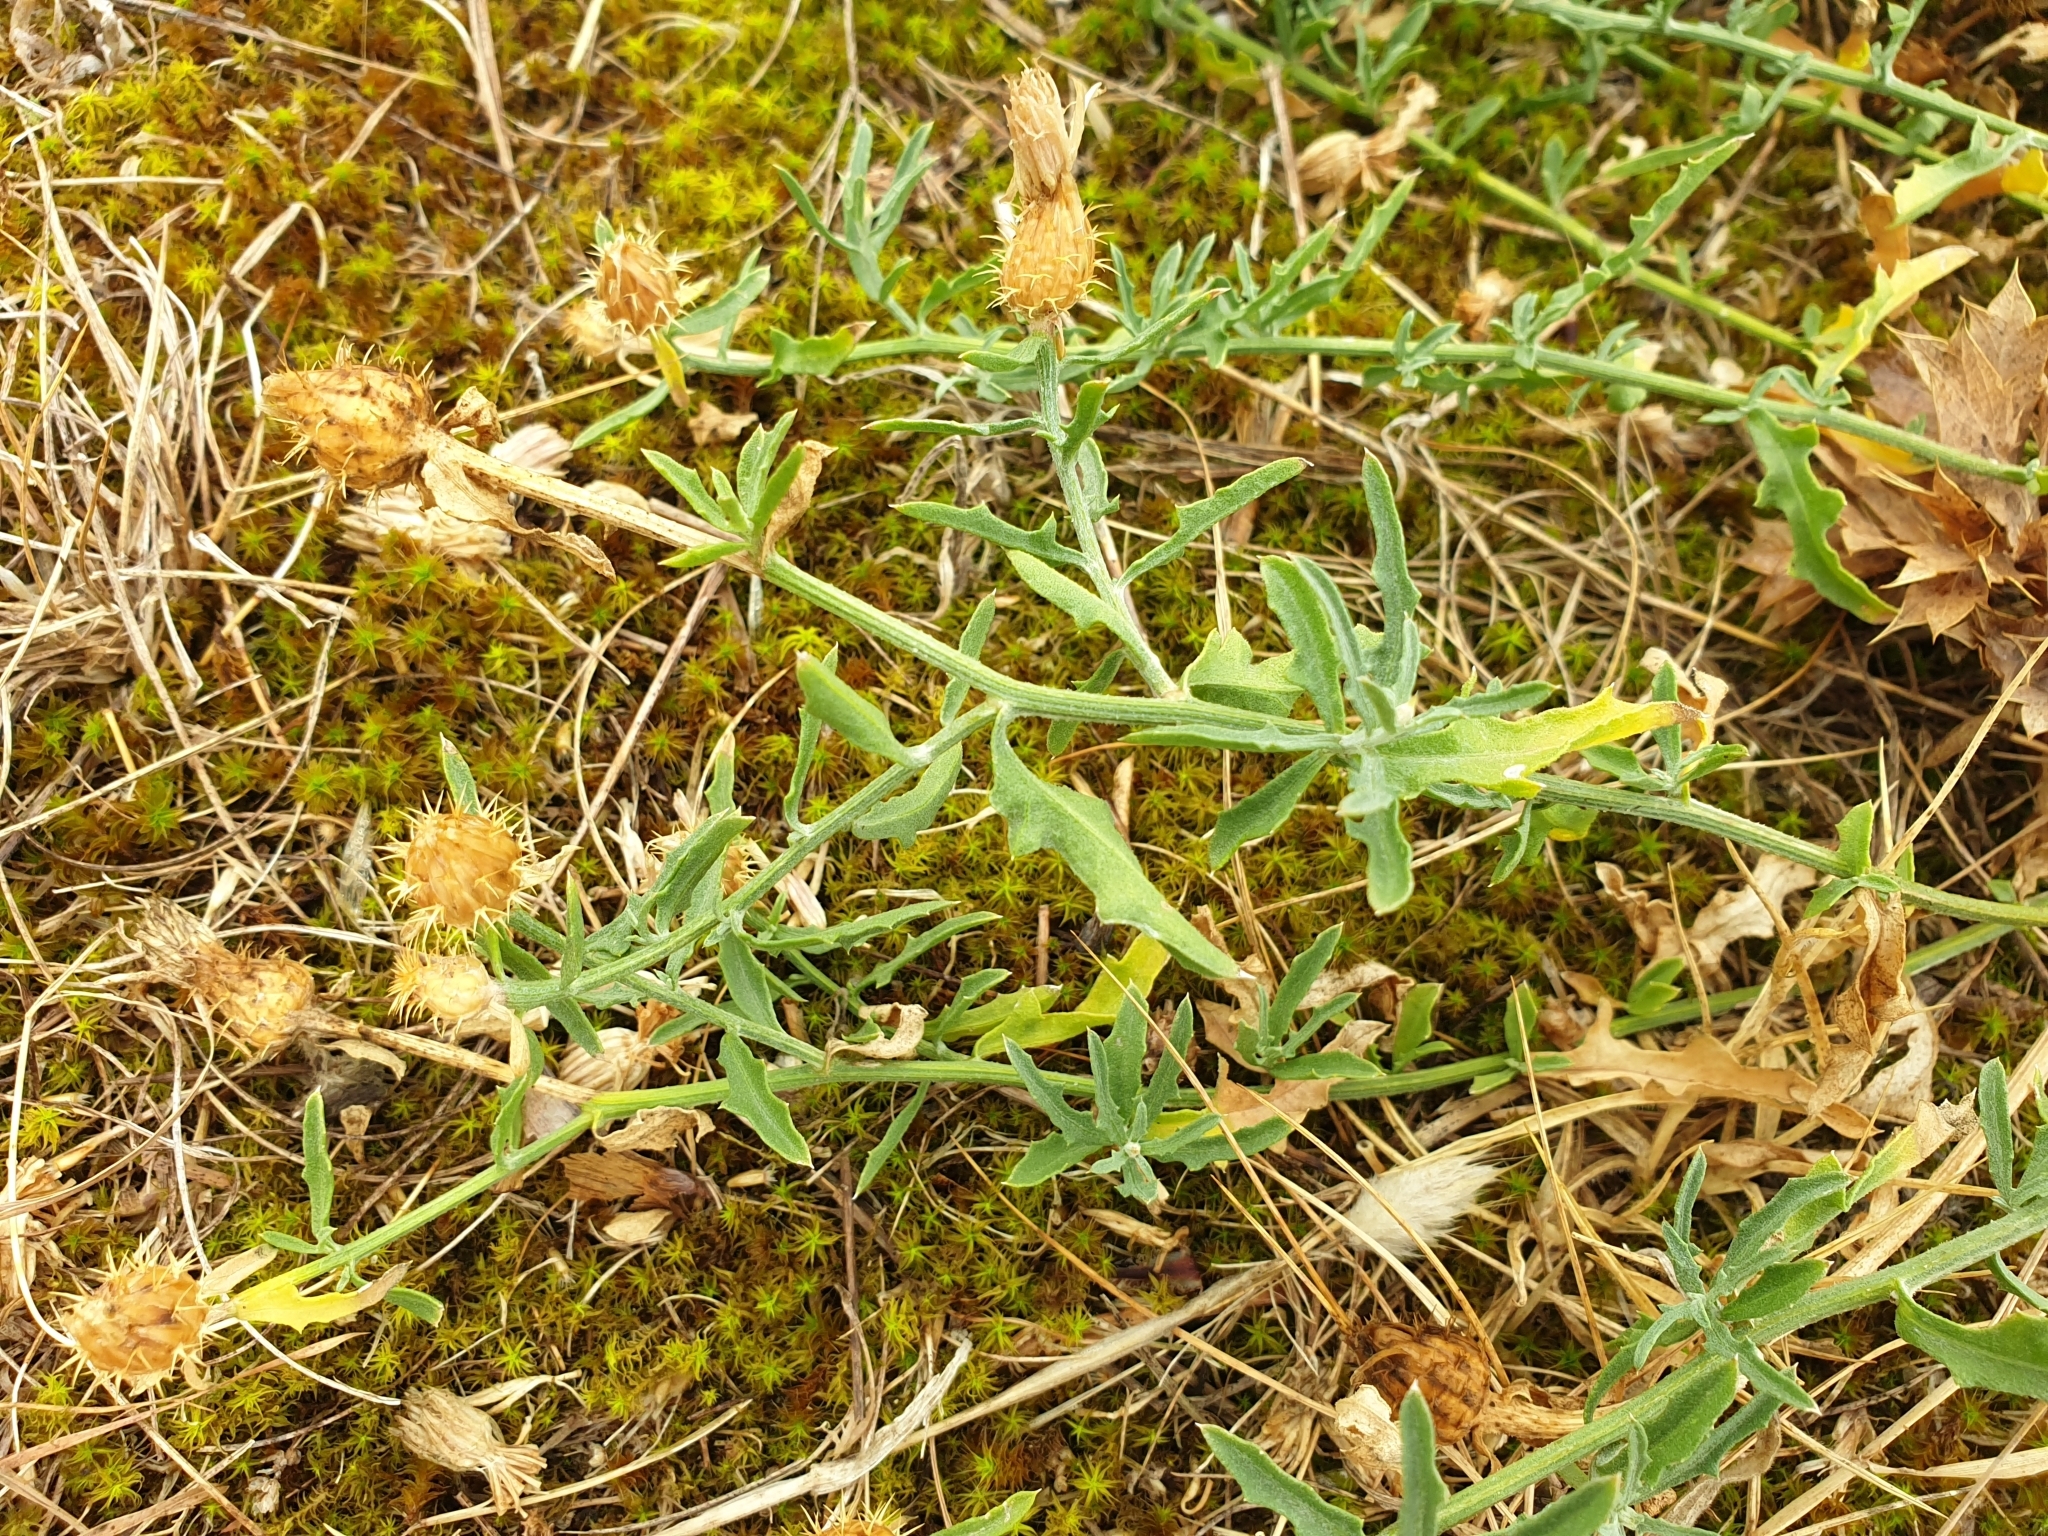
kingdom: Plantae
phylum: Tracheophyta
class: Magnoliopsida
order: Asterales
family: Asteraceae
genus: Centaurea
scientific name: Centaurea aspera
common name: Rough star-thistle
